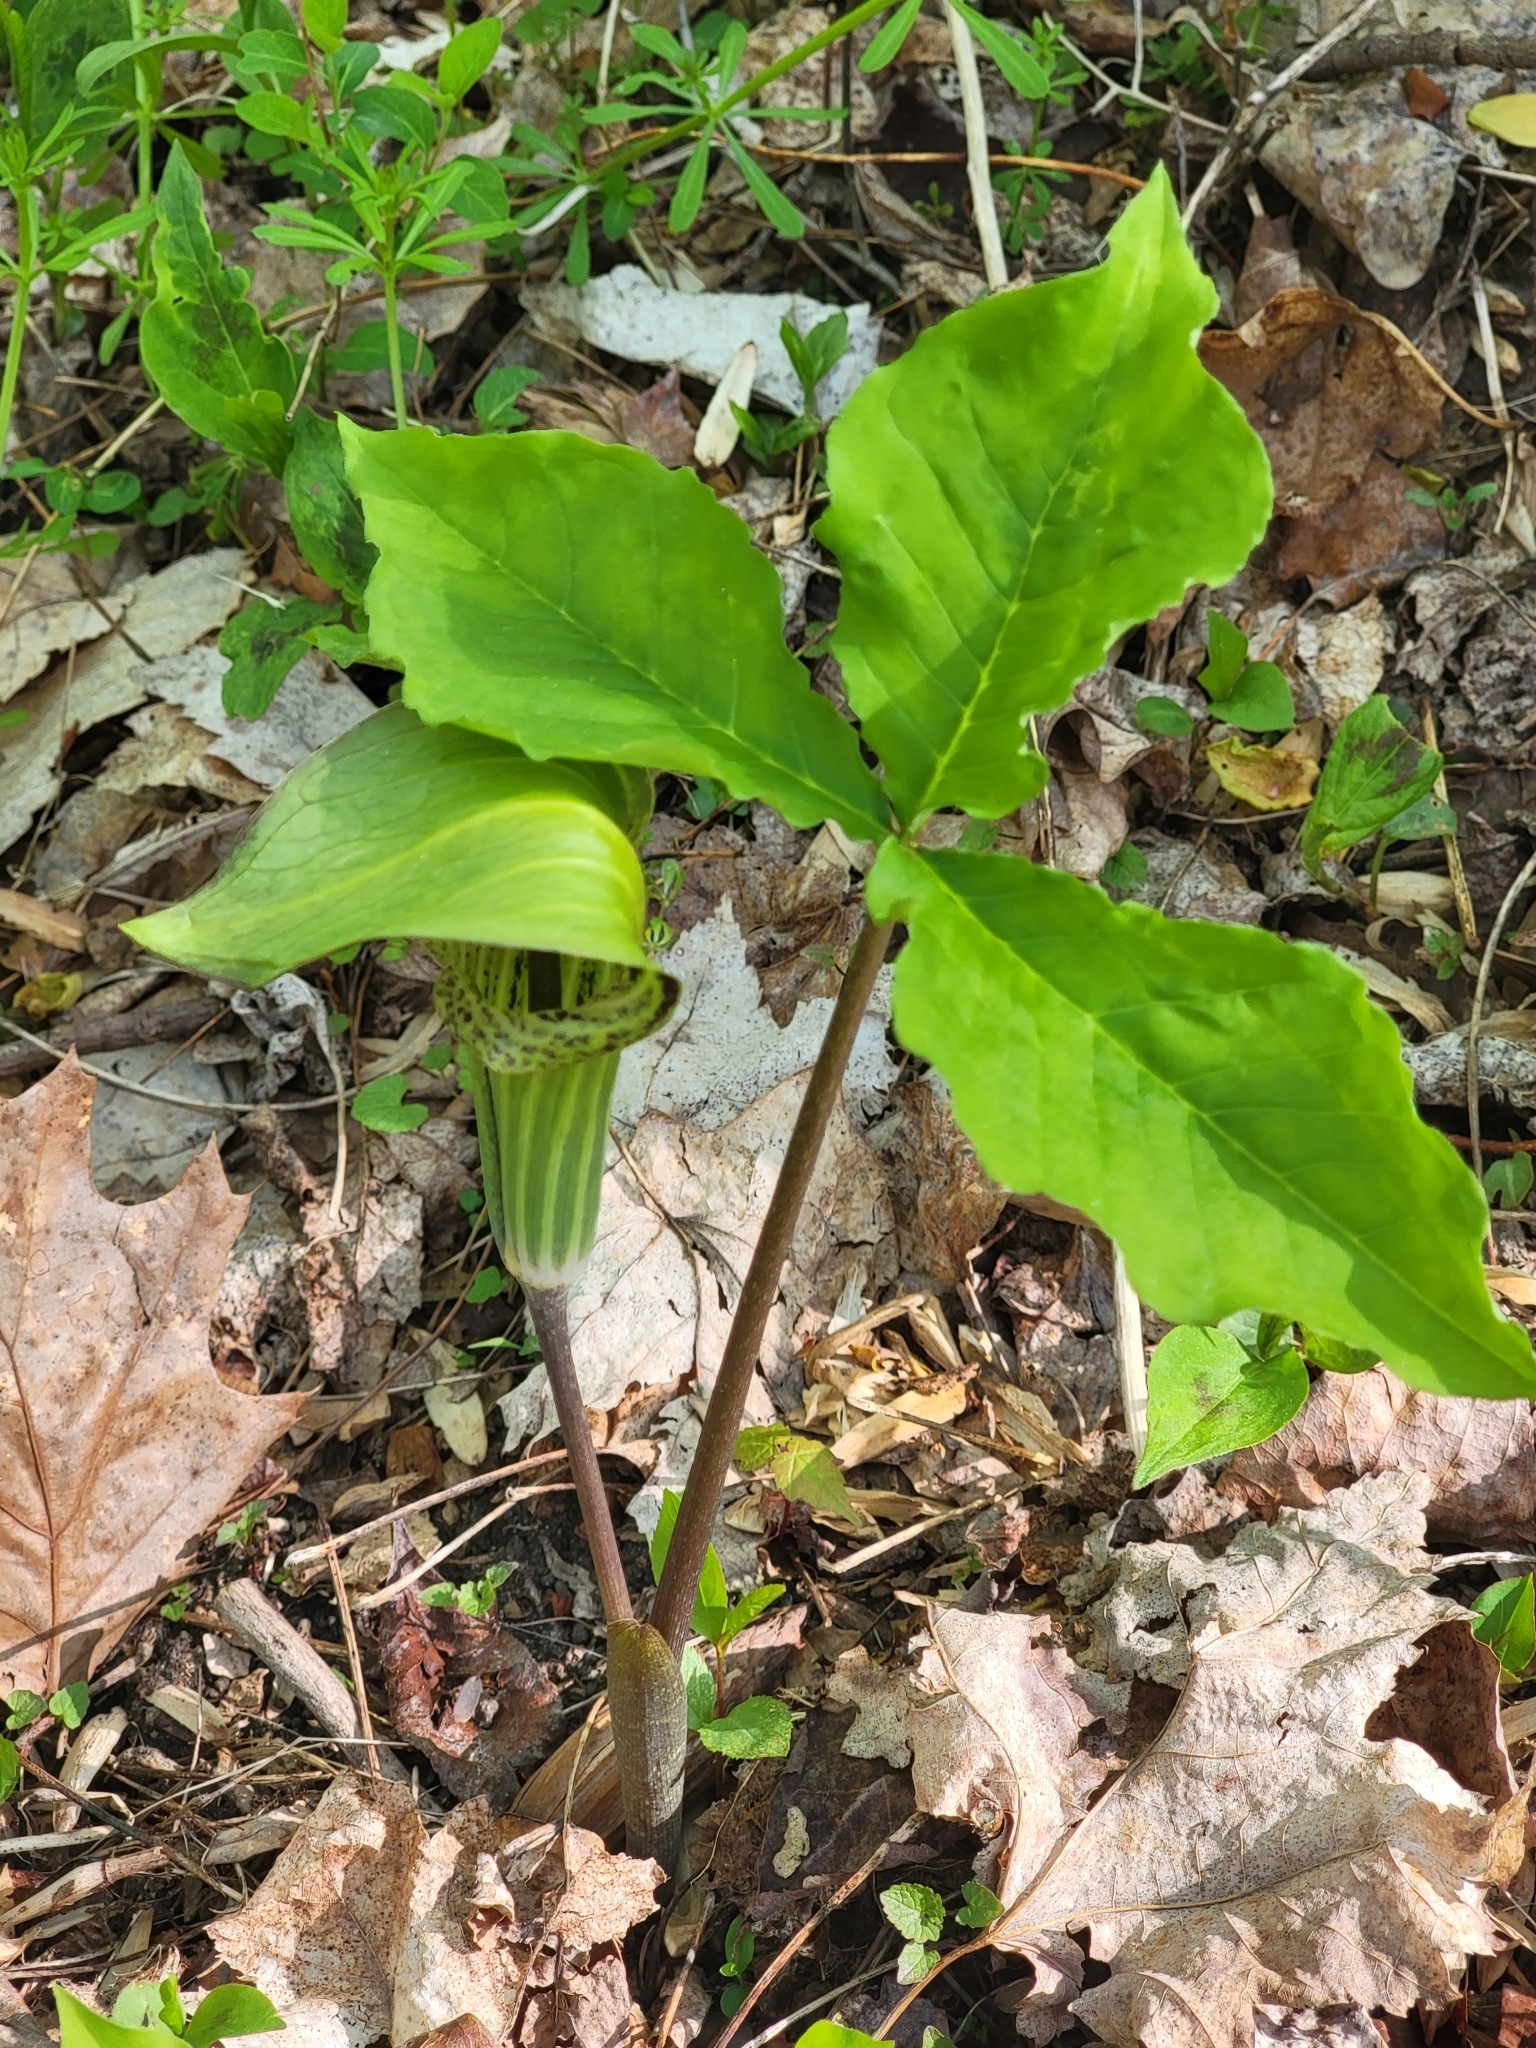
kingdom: Plantae
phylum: Tracheophyta
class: Liliopsida
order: Alismatales
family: Araceae
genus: Arisaema
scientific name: Arisaema triphyllum
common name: Jack-in-the-pulpit
